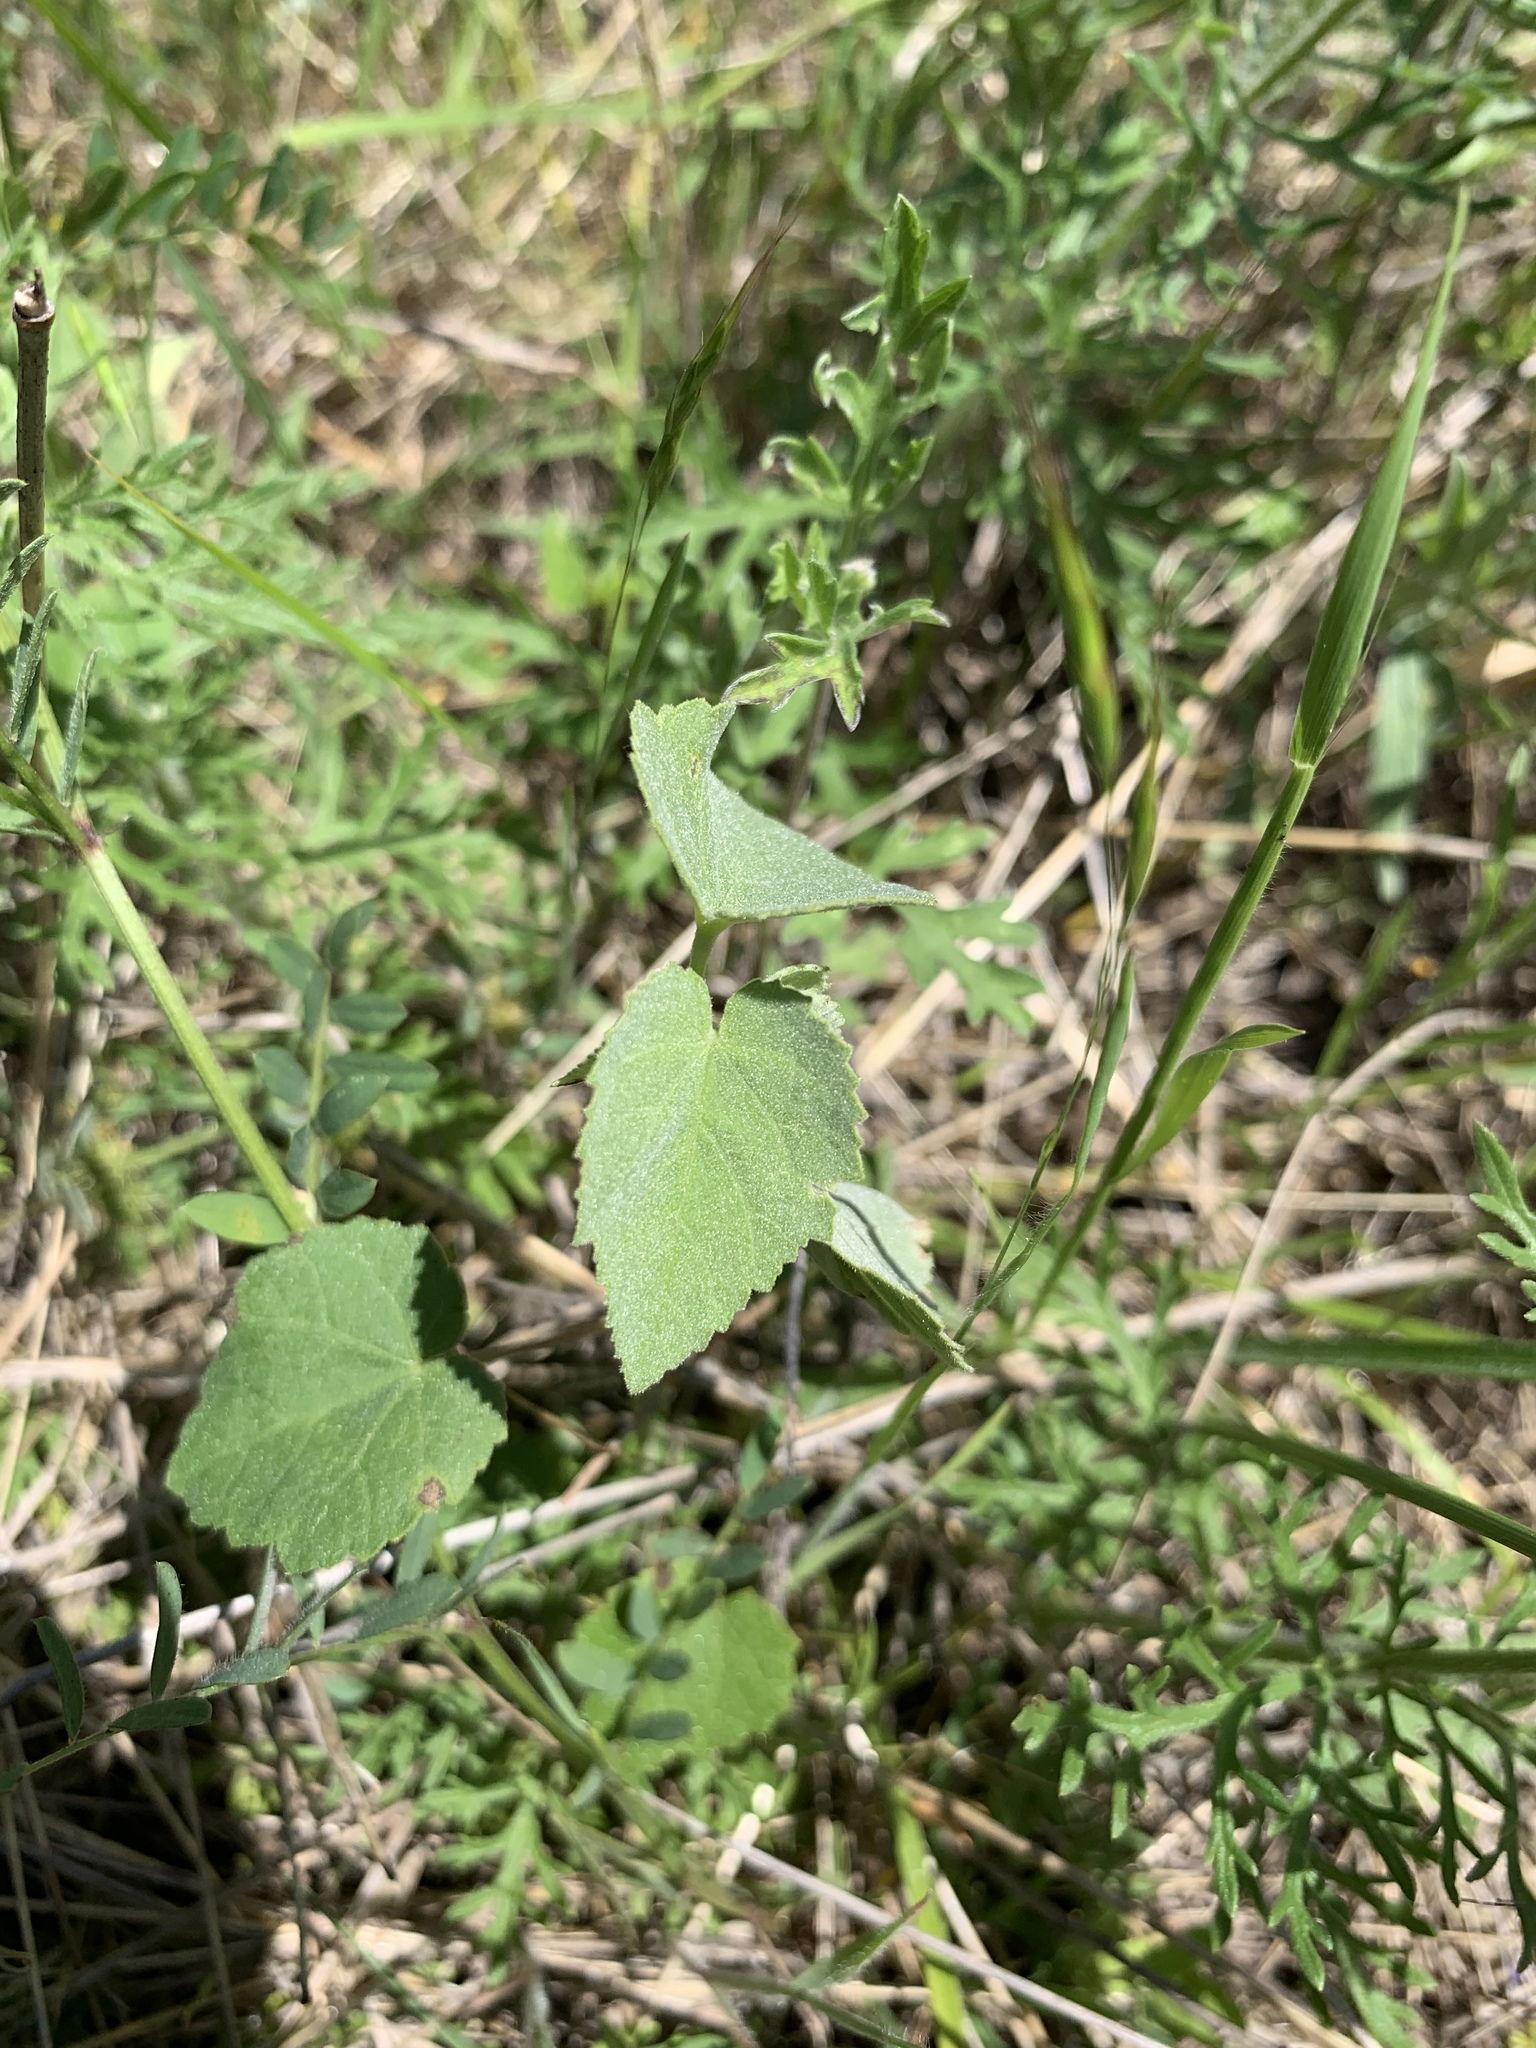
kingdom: Plantae
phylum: Tracheophyta
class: Magnoliopsida
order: Malvales
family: Malvaceae
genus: Abutilon
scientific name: Abutilon fruticosum
